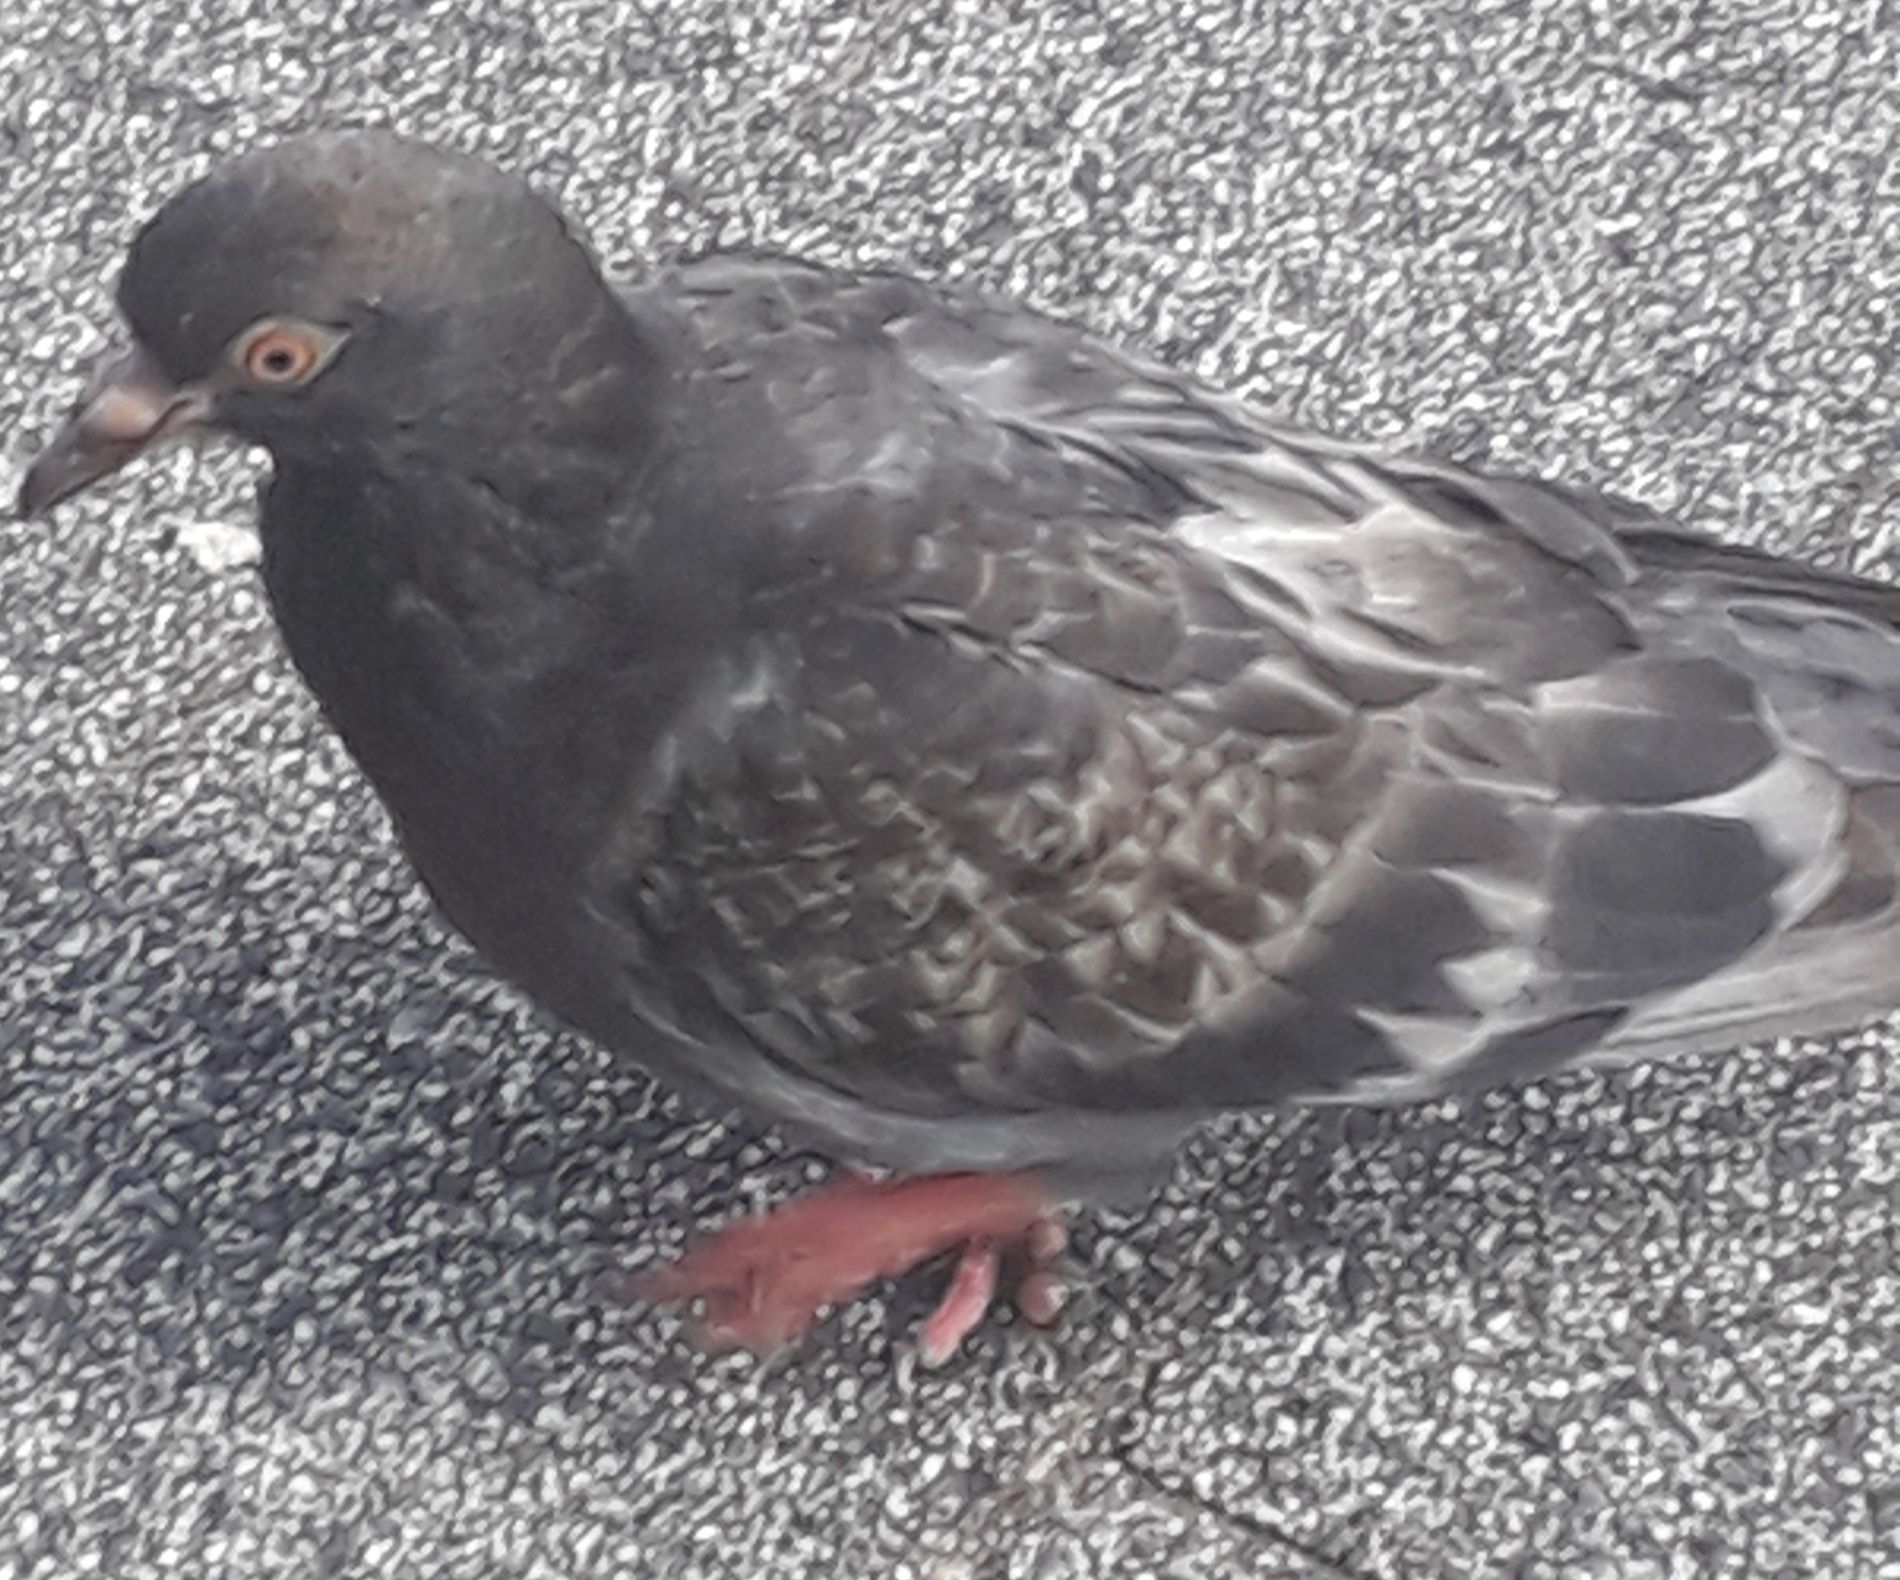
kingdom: Animalia
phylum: Chordata
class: Aves
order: Columbiformes
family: Columbidae
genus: Columba
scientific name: Columba livia
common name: Rock pigeon
